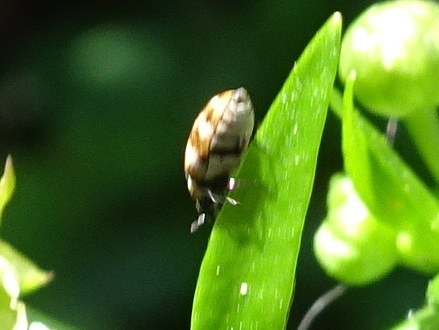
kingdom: Animalia
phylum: Arthropoda
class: Insecta
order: Coleoptera
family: Dermestidae
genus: Anthrenus
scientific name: Anthrenus verbasci
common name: Varied carpet beetle
